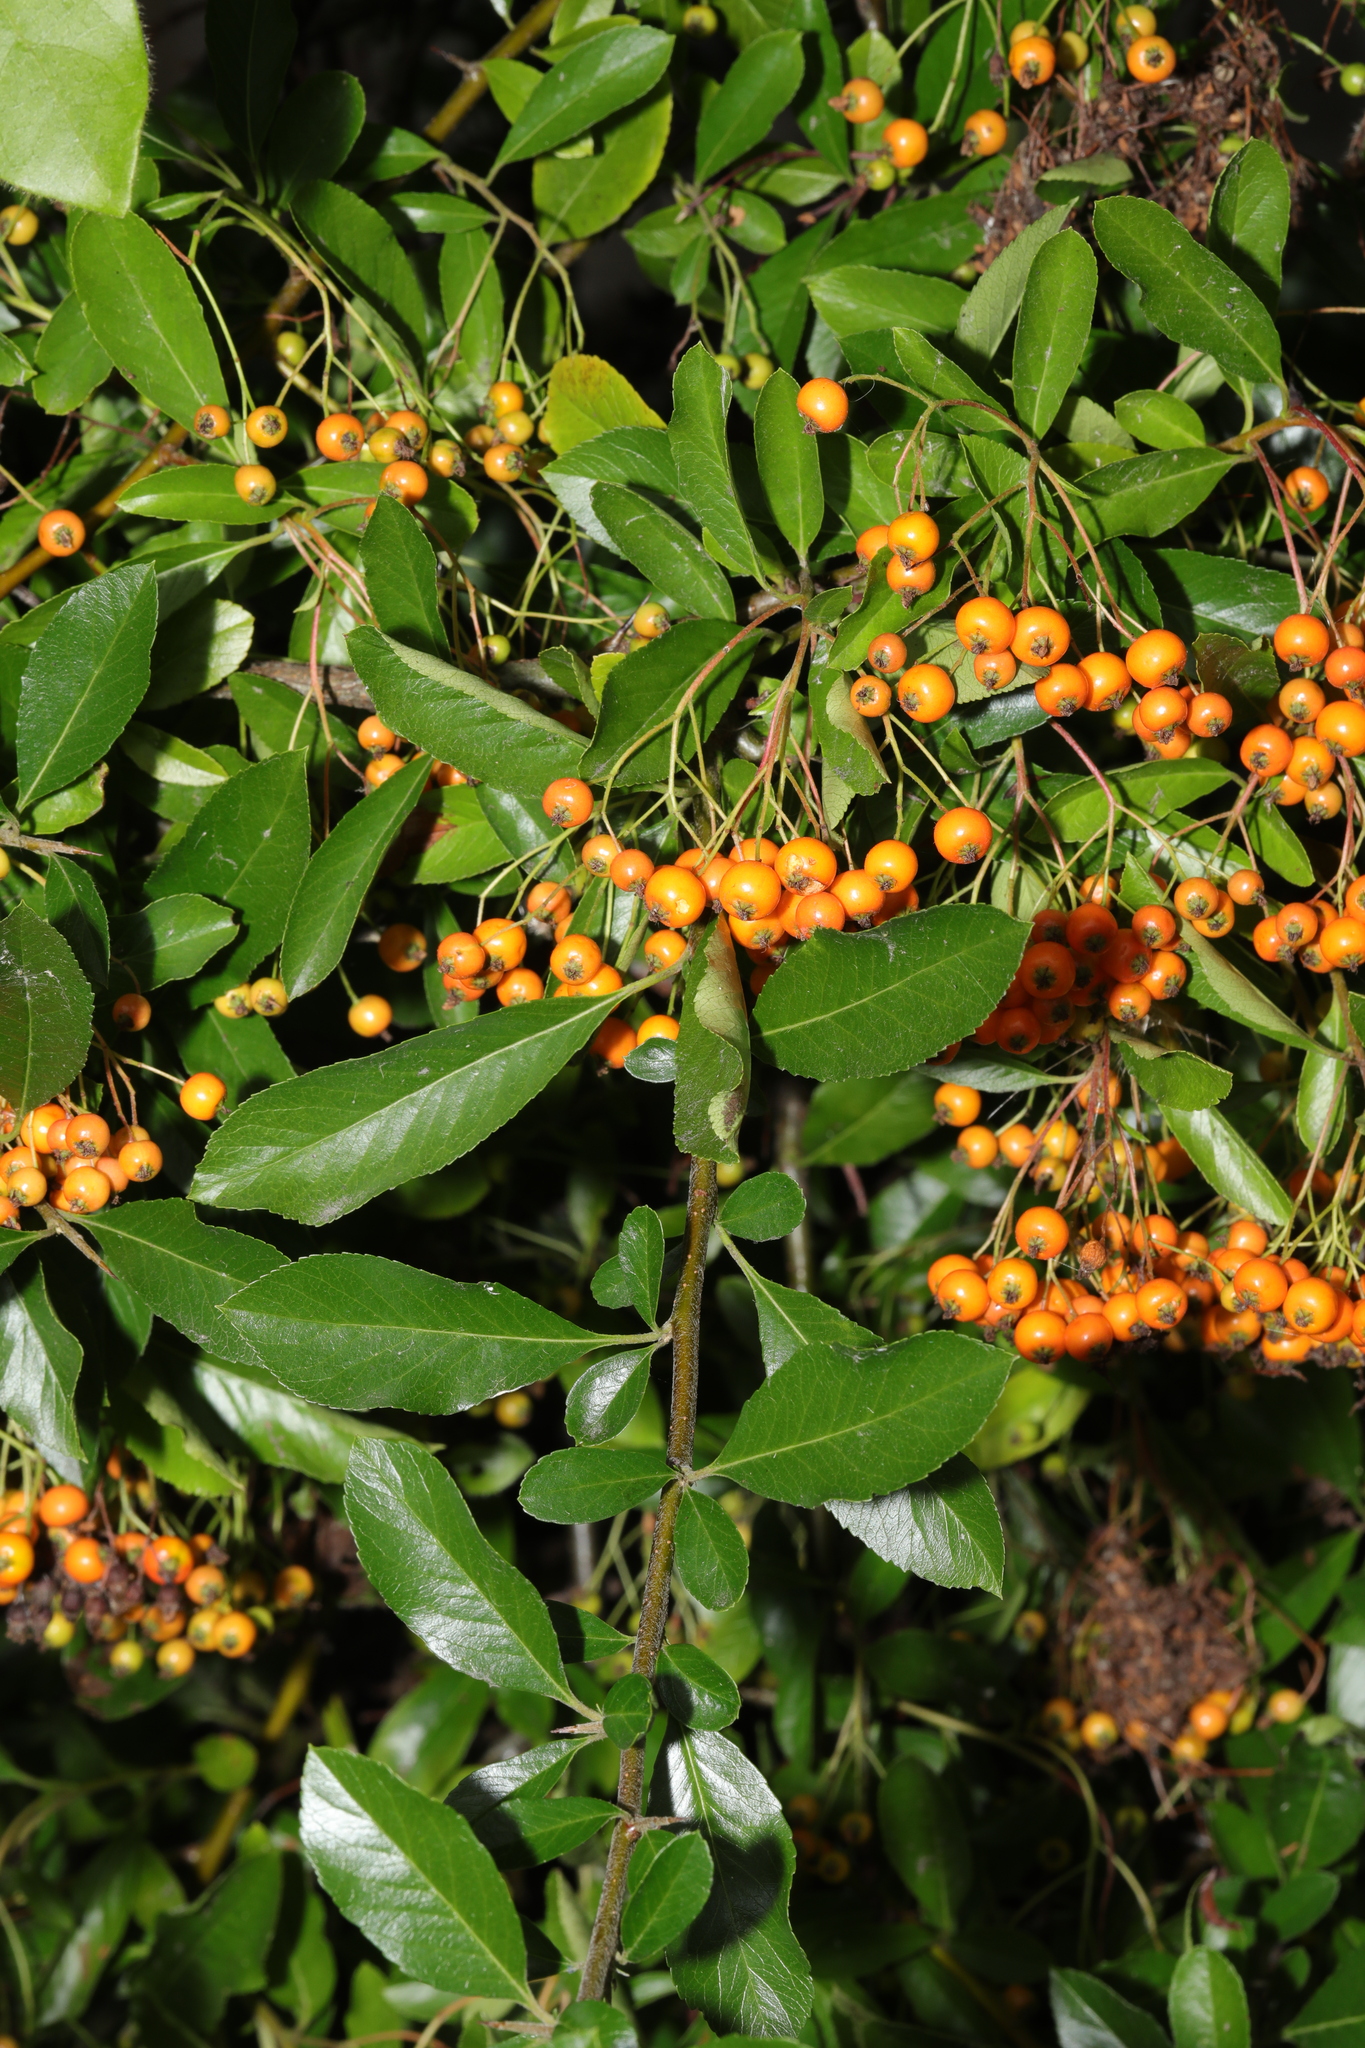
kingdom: Plantae
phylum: Tracheophyta
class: Magnoliopsida
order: Rosales
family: Rosaceae
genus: Pyracantha
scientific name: Pyracantha coccinea
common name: Firethorn
